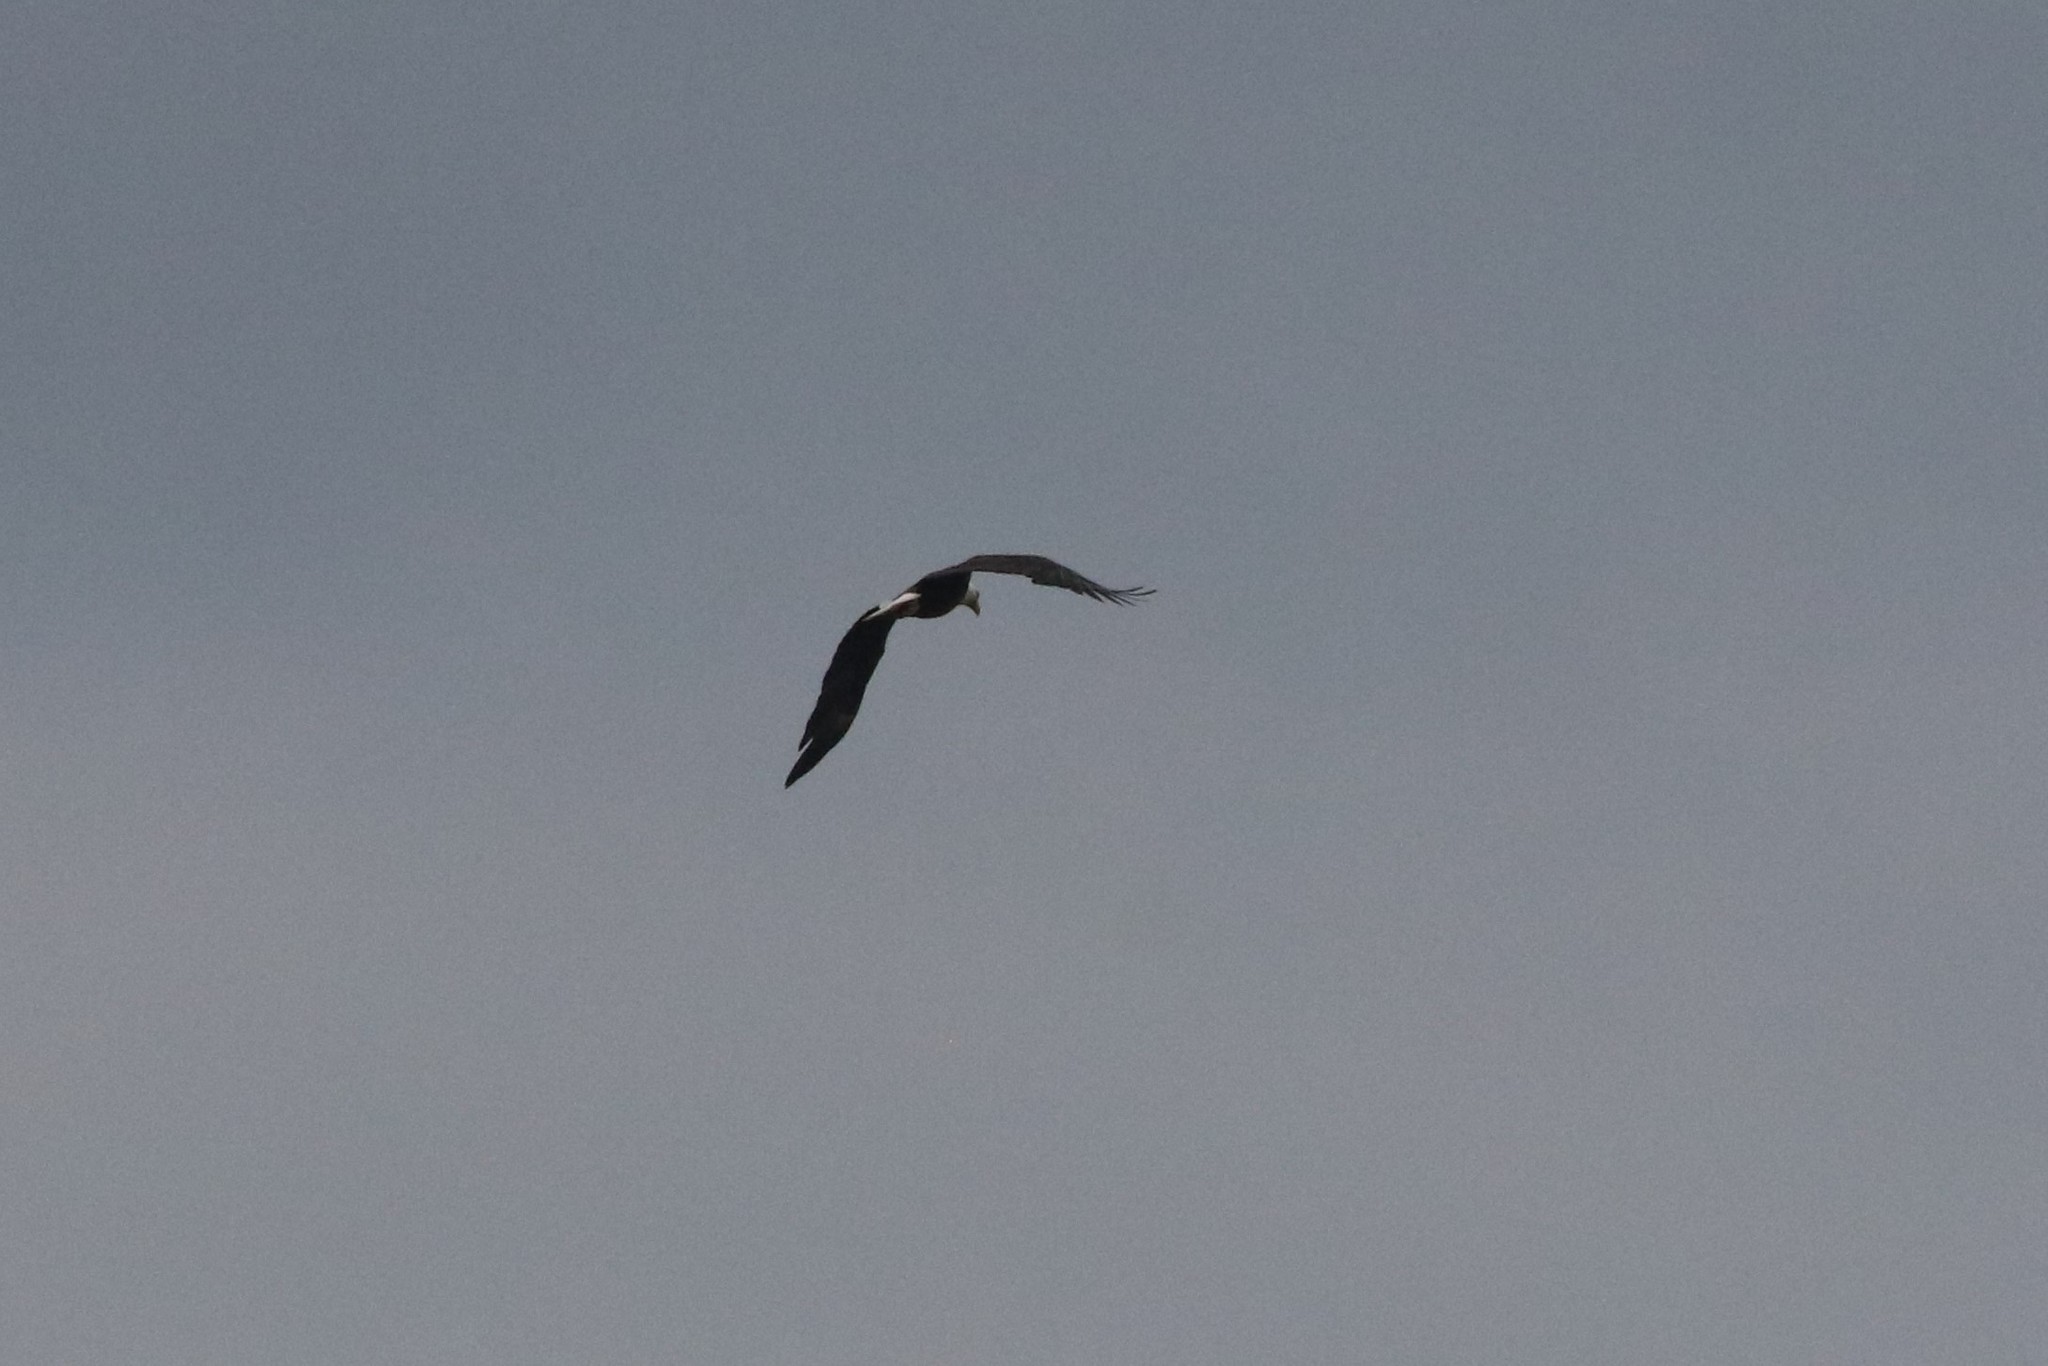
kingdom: Animalia
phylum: Chordata
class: Aves
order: Accipitriformes
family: Accipitridae
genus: Haliaeetus
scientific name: Haliaeetus leucocephalus
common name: Bald eagle
